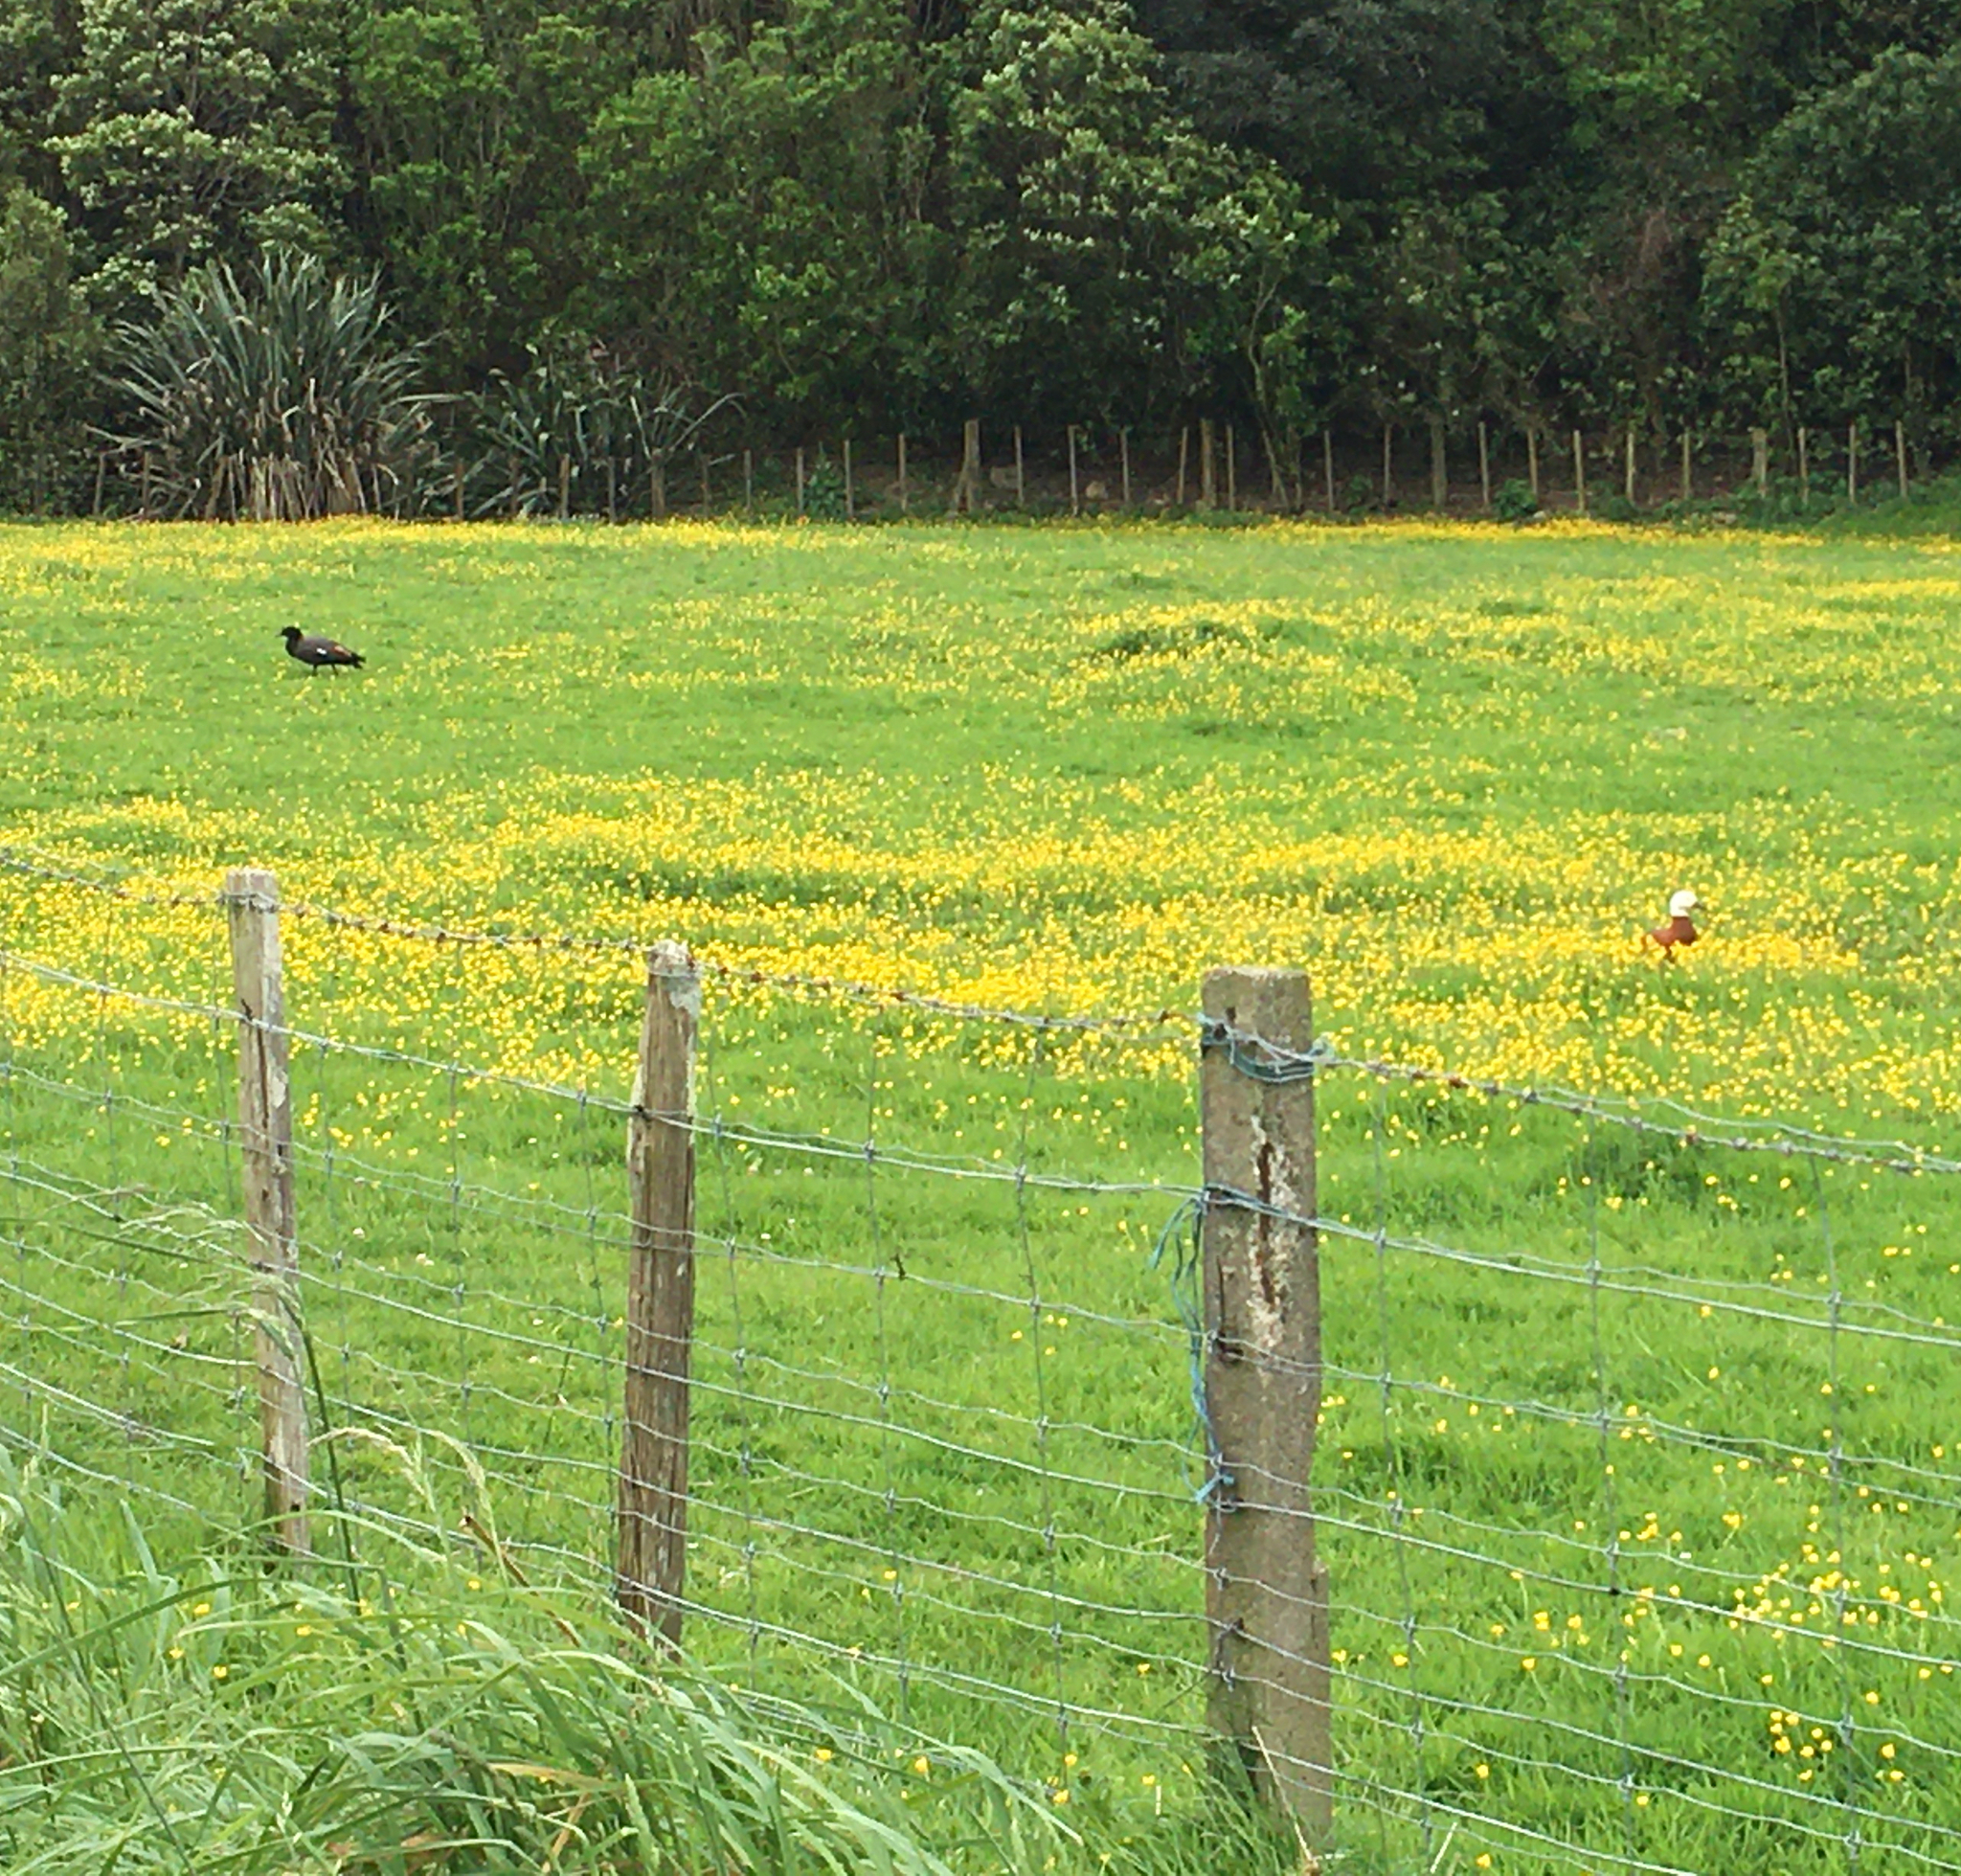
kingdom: Animalia
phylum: Chordata
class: Aves
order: Anseriformes
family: Anatidae
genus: Tadorna
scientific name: Tadorna variegata
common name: Paradise shelduck
